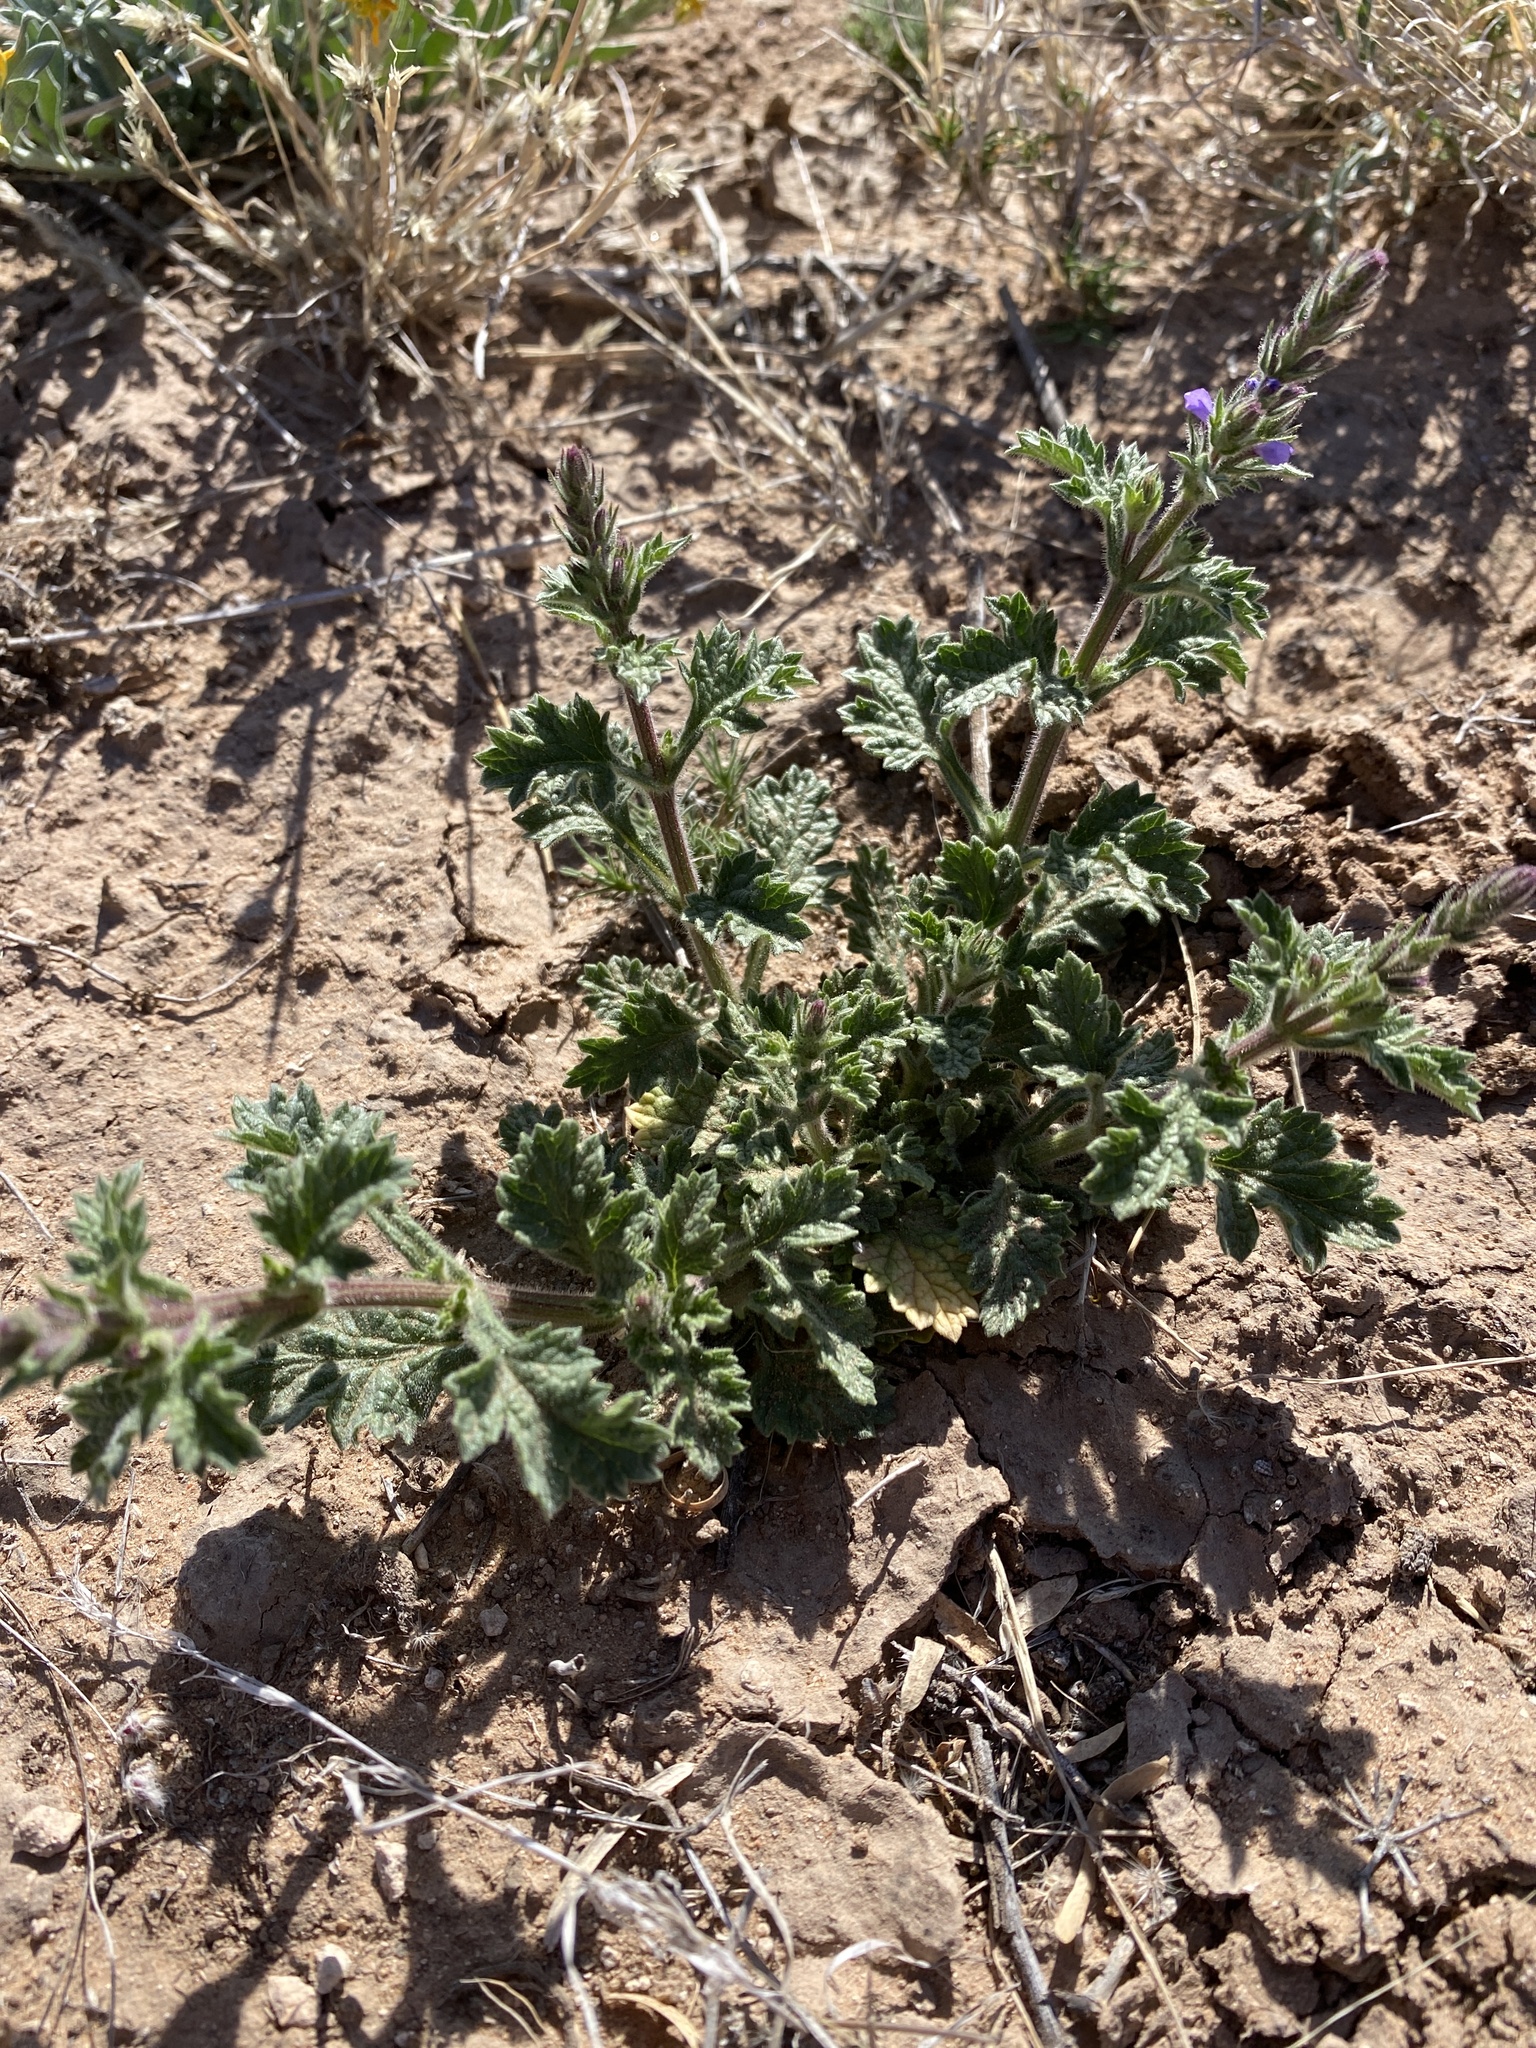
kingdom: Plantae
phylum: Tracheophyta
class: Magnoliopsida
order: Lamiales
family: Verbenaceae
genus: Verbena
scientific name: Verbena plicata
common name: Fan-leaf vervain
